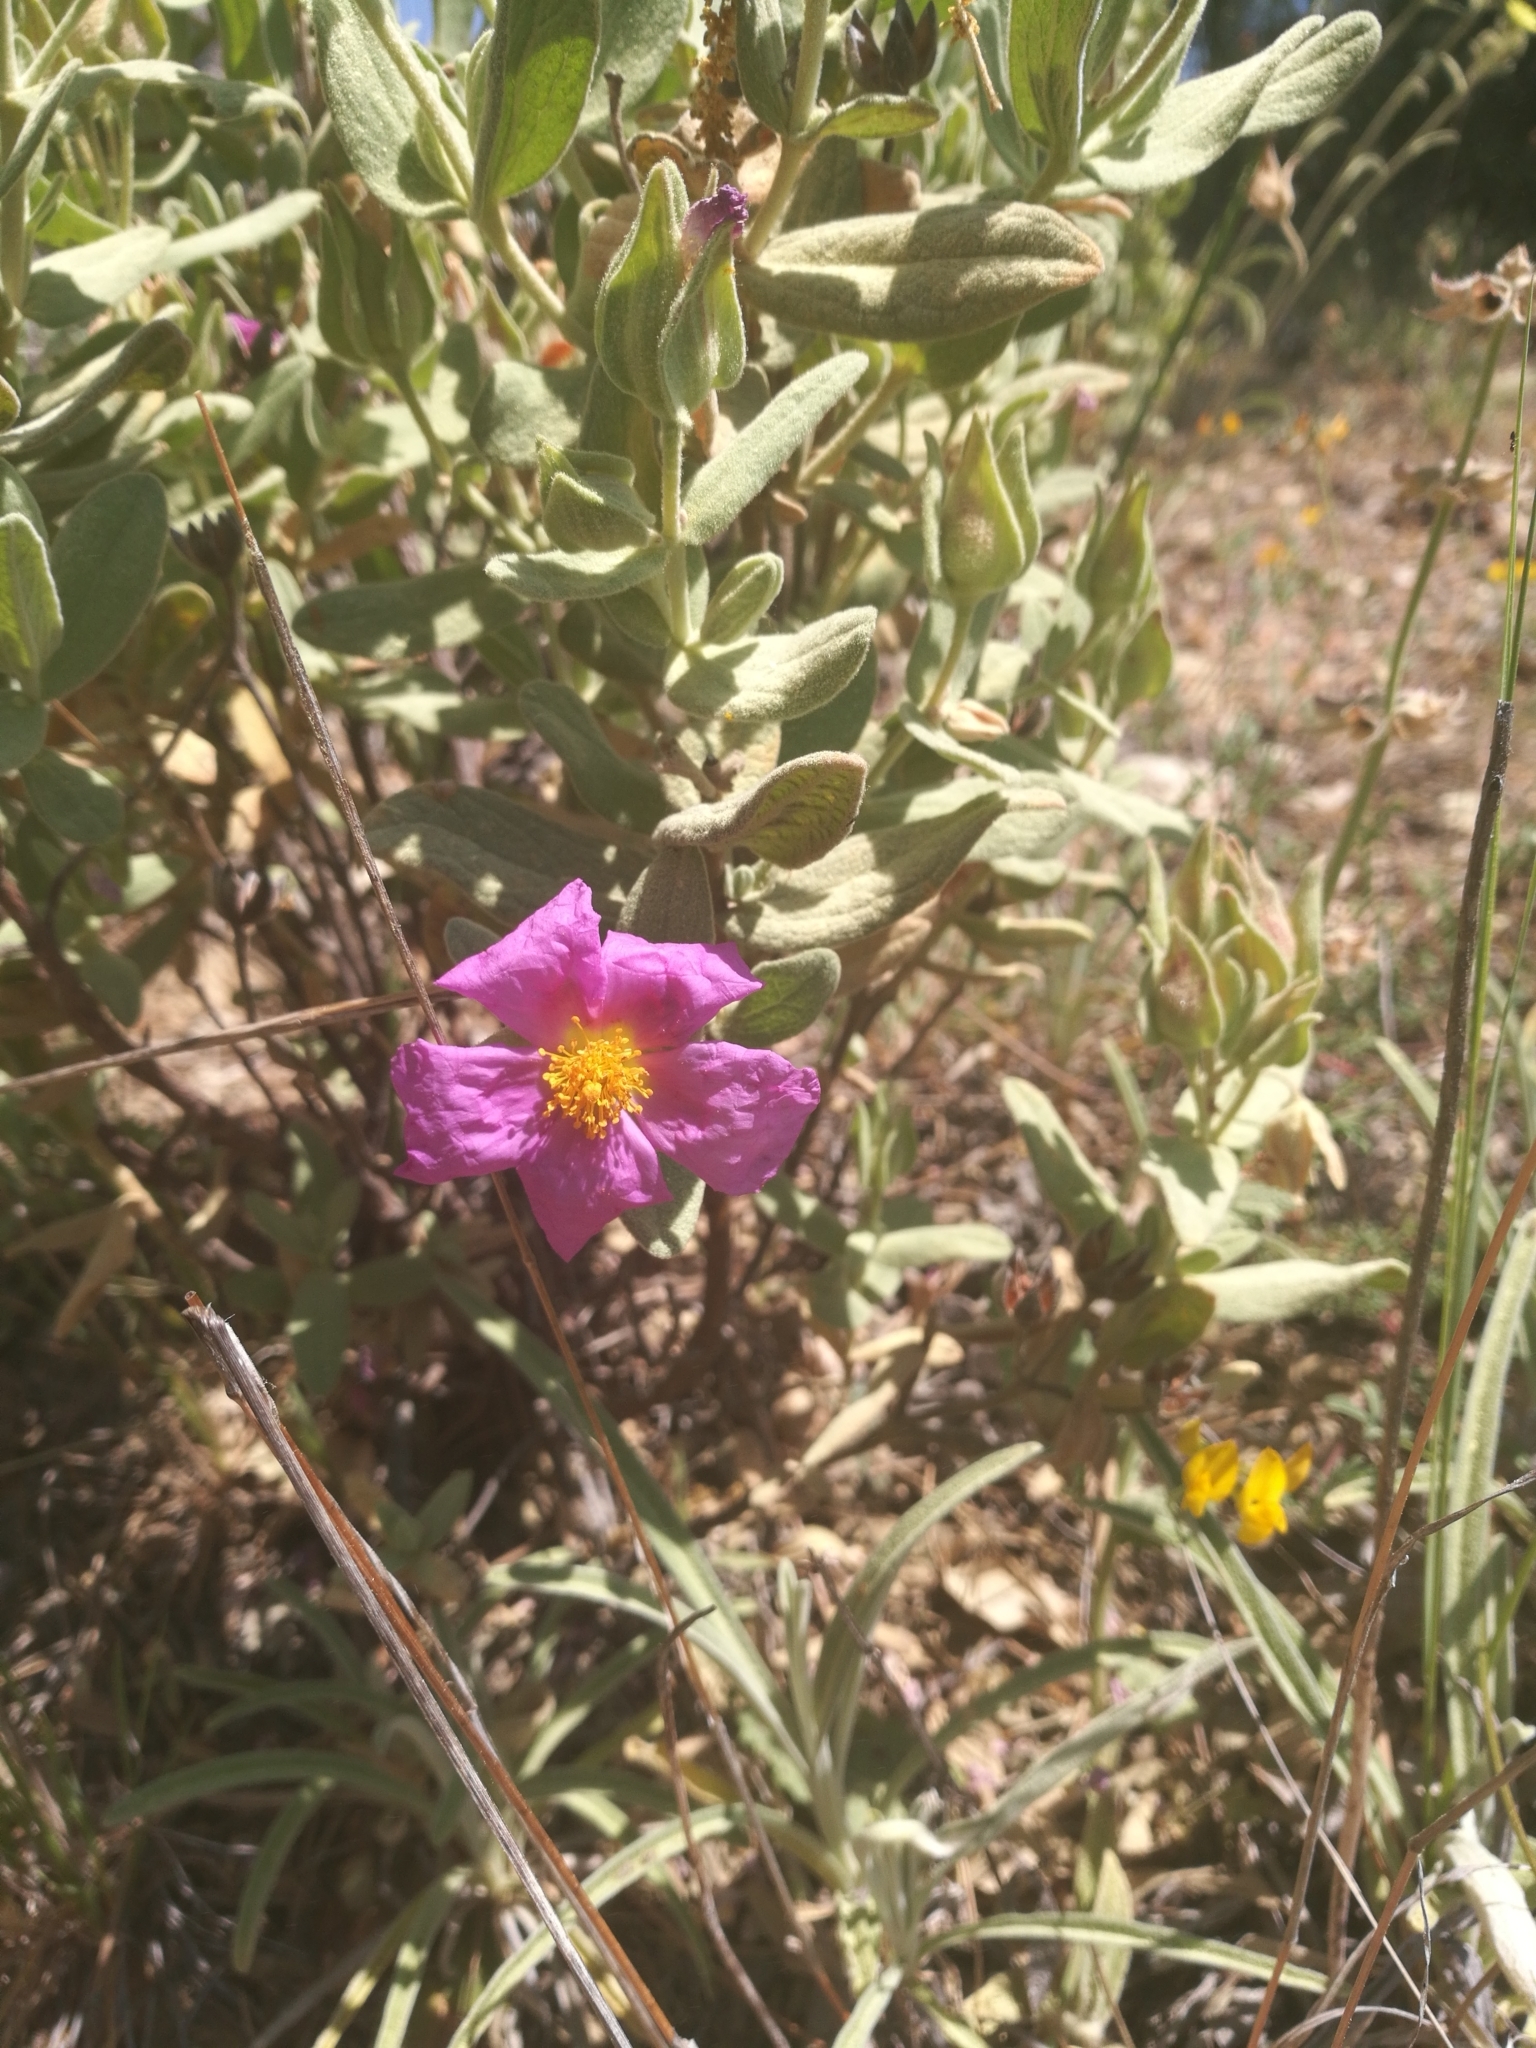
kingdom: Plantae
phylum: Tracheophyta
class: Magnoliopsida
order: Malvales
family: Cistaceae
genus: Cistus
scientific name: Cistus albidus
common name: White-leaf rock-rose
